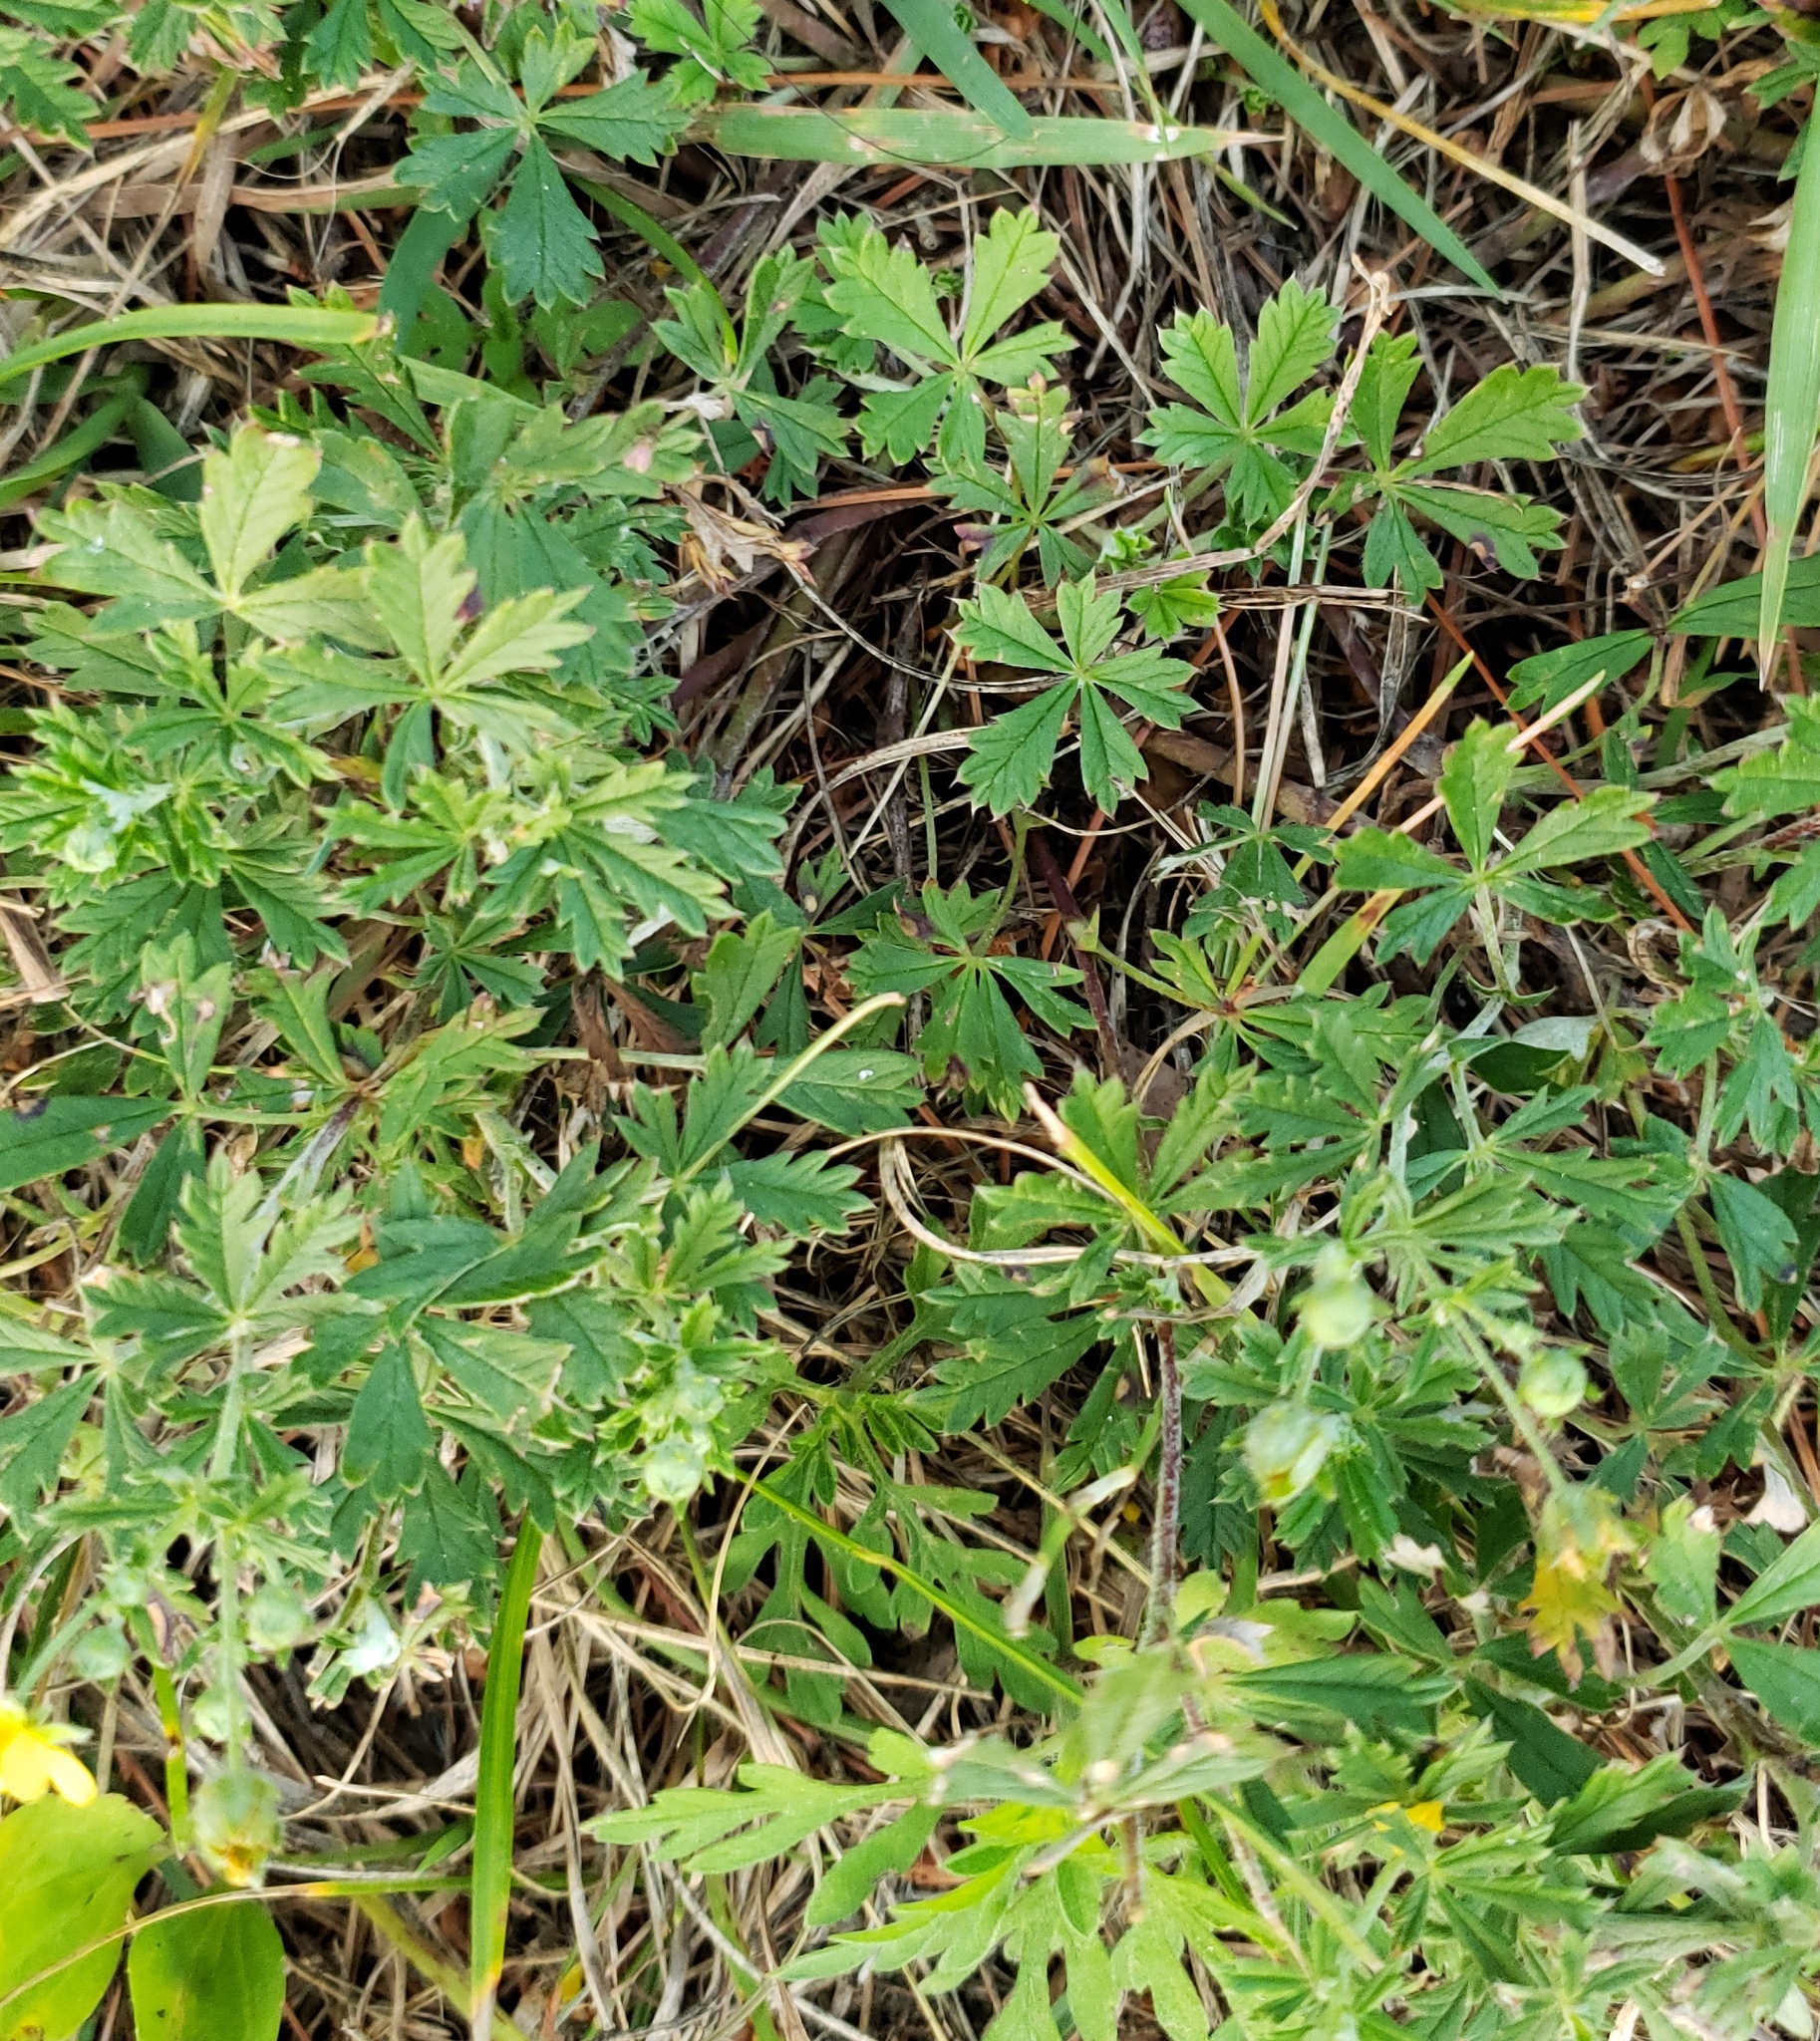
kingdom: Plantae
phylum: Tracheophyta
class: Magnoliopsida
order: Rosales
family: Rosaceae
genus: Potentilla
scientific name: Potentilla argentea
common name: Hoary cinquefoil
